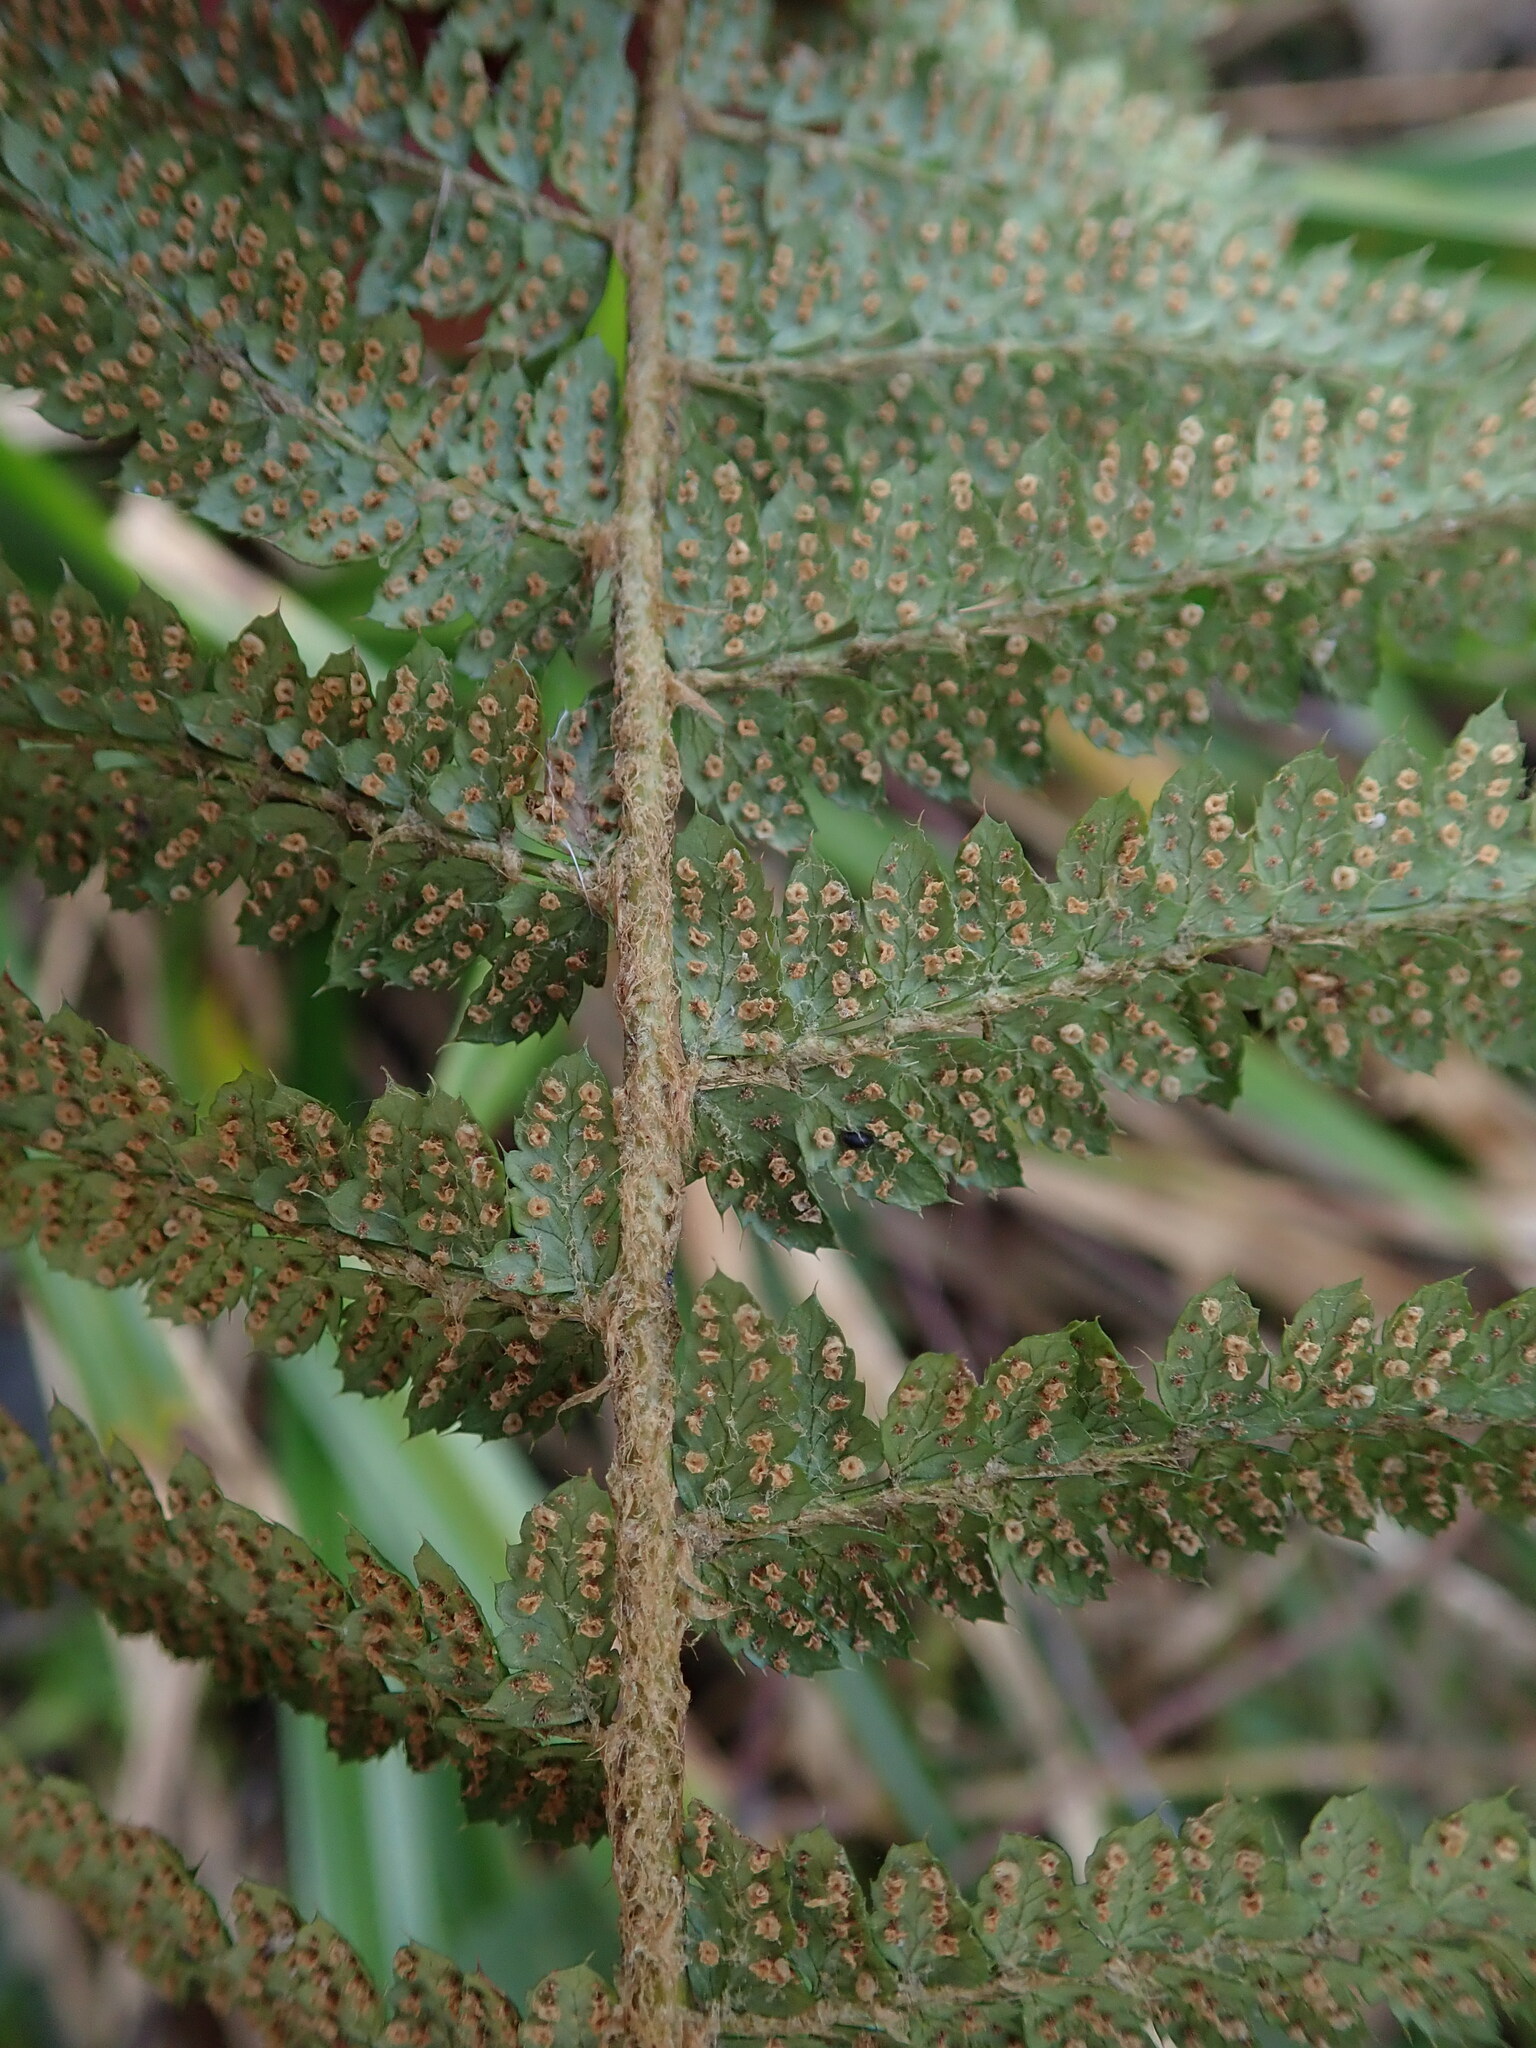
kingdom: Plantae
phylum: Tracheophyta
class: Polypodiopsida
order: Polypodiales
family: Dryopteridaceae
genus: Polystichum
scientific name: Polystichum setiferum
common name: Soft shield-fern
